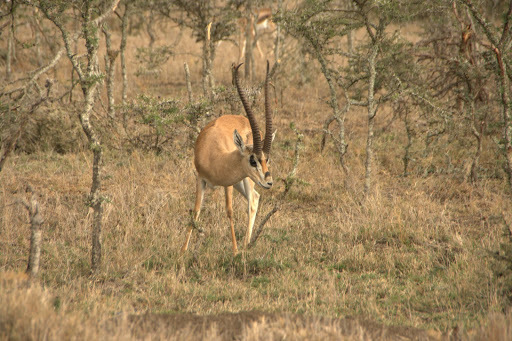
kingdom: Animalia
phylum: Chordata
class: Mammalia
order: Artiodactyla
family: Bovidae
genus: Nanger
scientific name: Nanger granti
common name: Grant's gazelle
